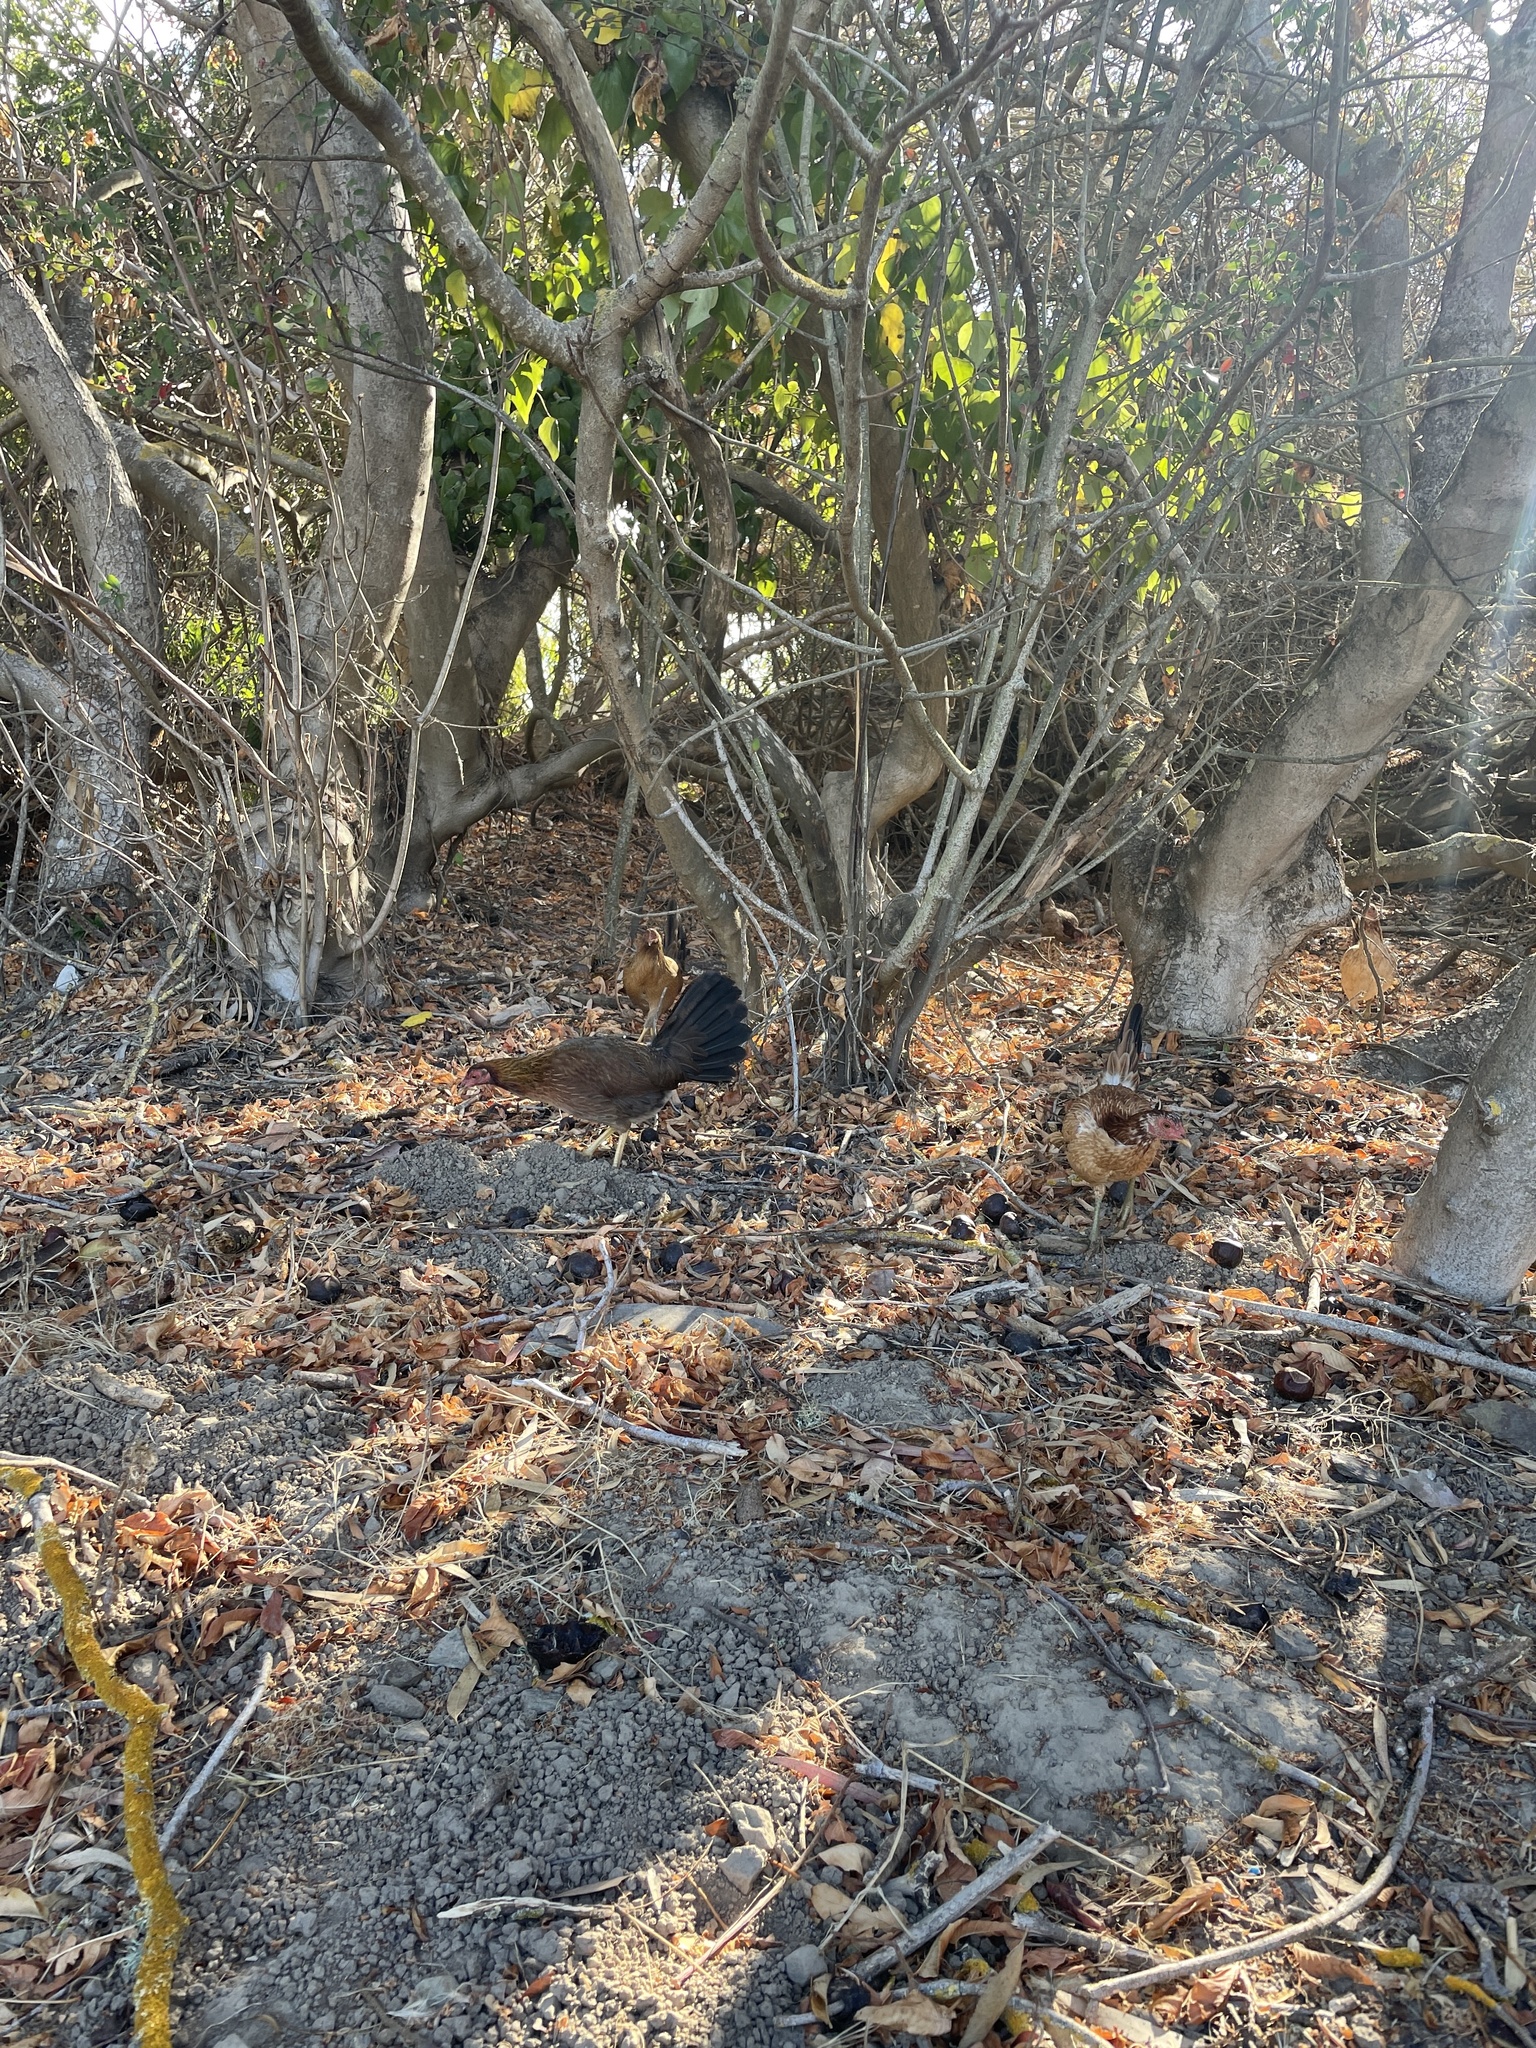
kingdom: Animalia
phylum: Chordata
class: Aves
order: Galliformes
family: Phasianidae
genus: Gallus
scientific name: Gallus gallus
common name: Red junglefowl
